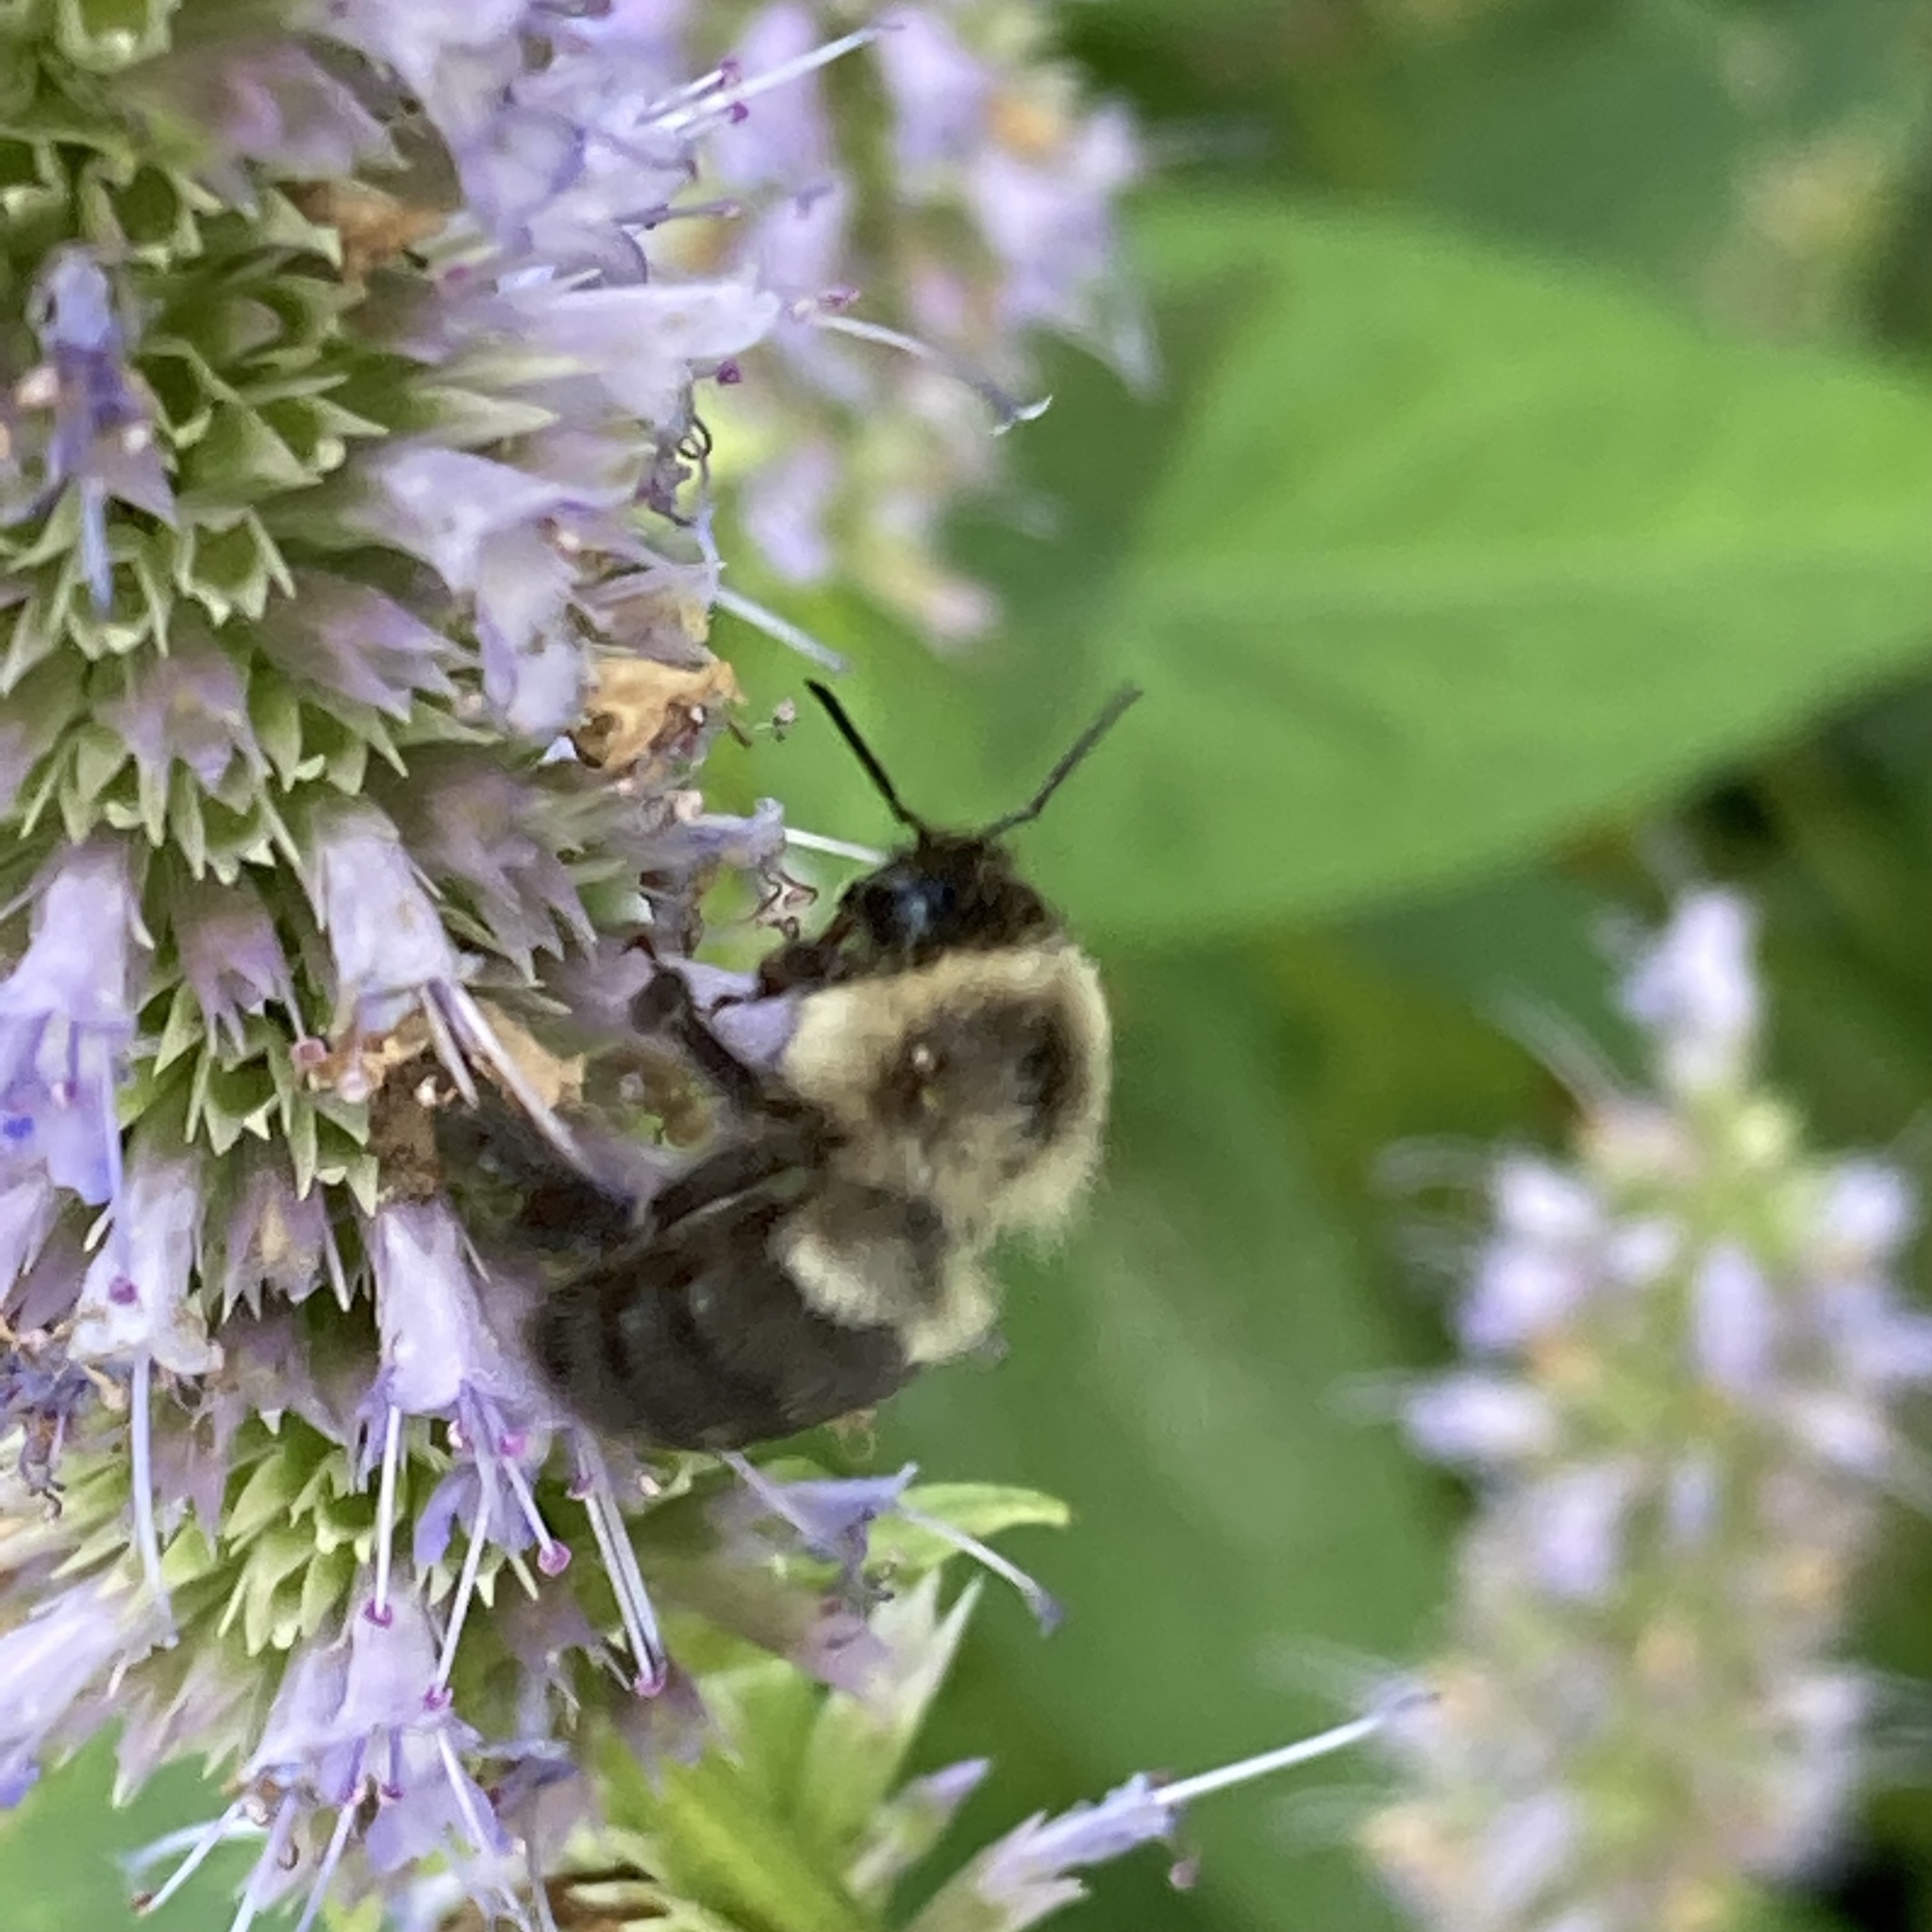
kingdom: Animalia
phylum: Arthropoda
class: Insecta
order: Hymenoptera
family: Apidae
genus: Bombus
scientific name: Bombus impatiens
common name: Common eastern bumble bee
